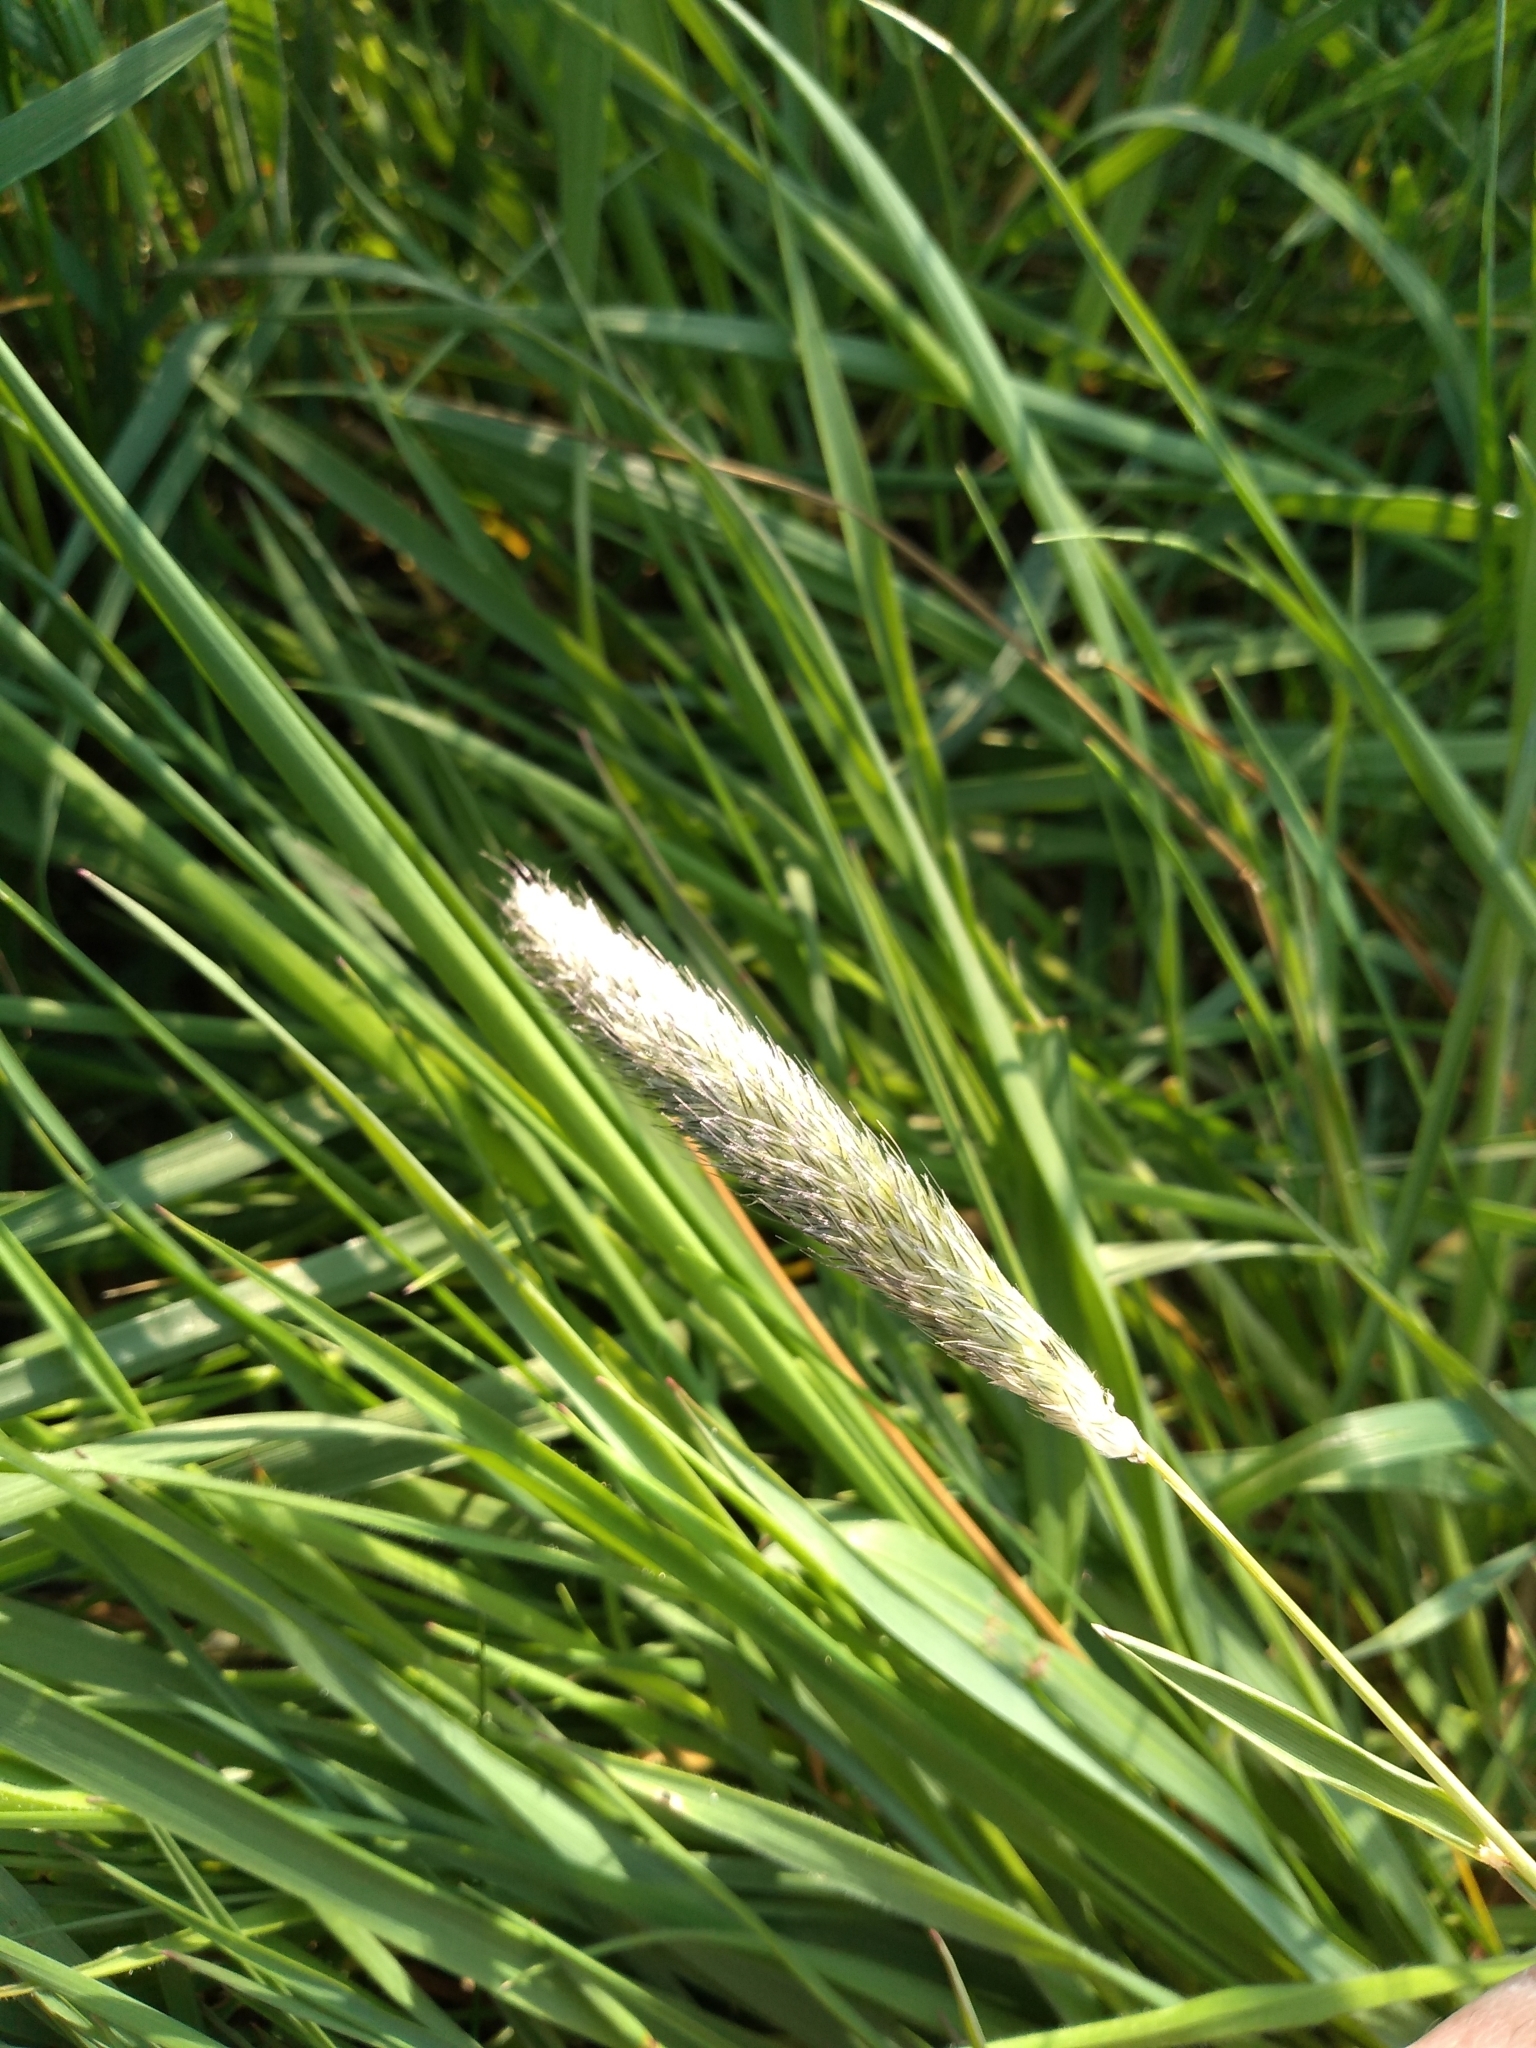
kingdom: Plantae
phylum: Tracheophyta
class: Liliopsida
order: Poales
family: Poaceae
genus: Alopecurus
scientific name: Alopecurus pratensis
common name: Meadow foxtail
